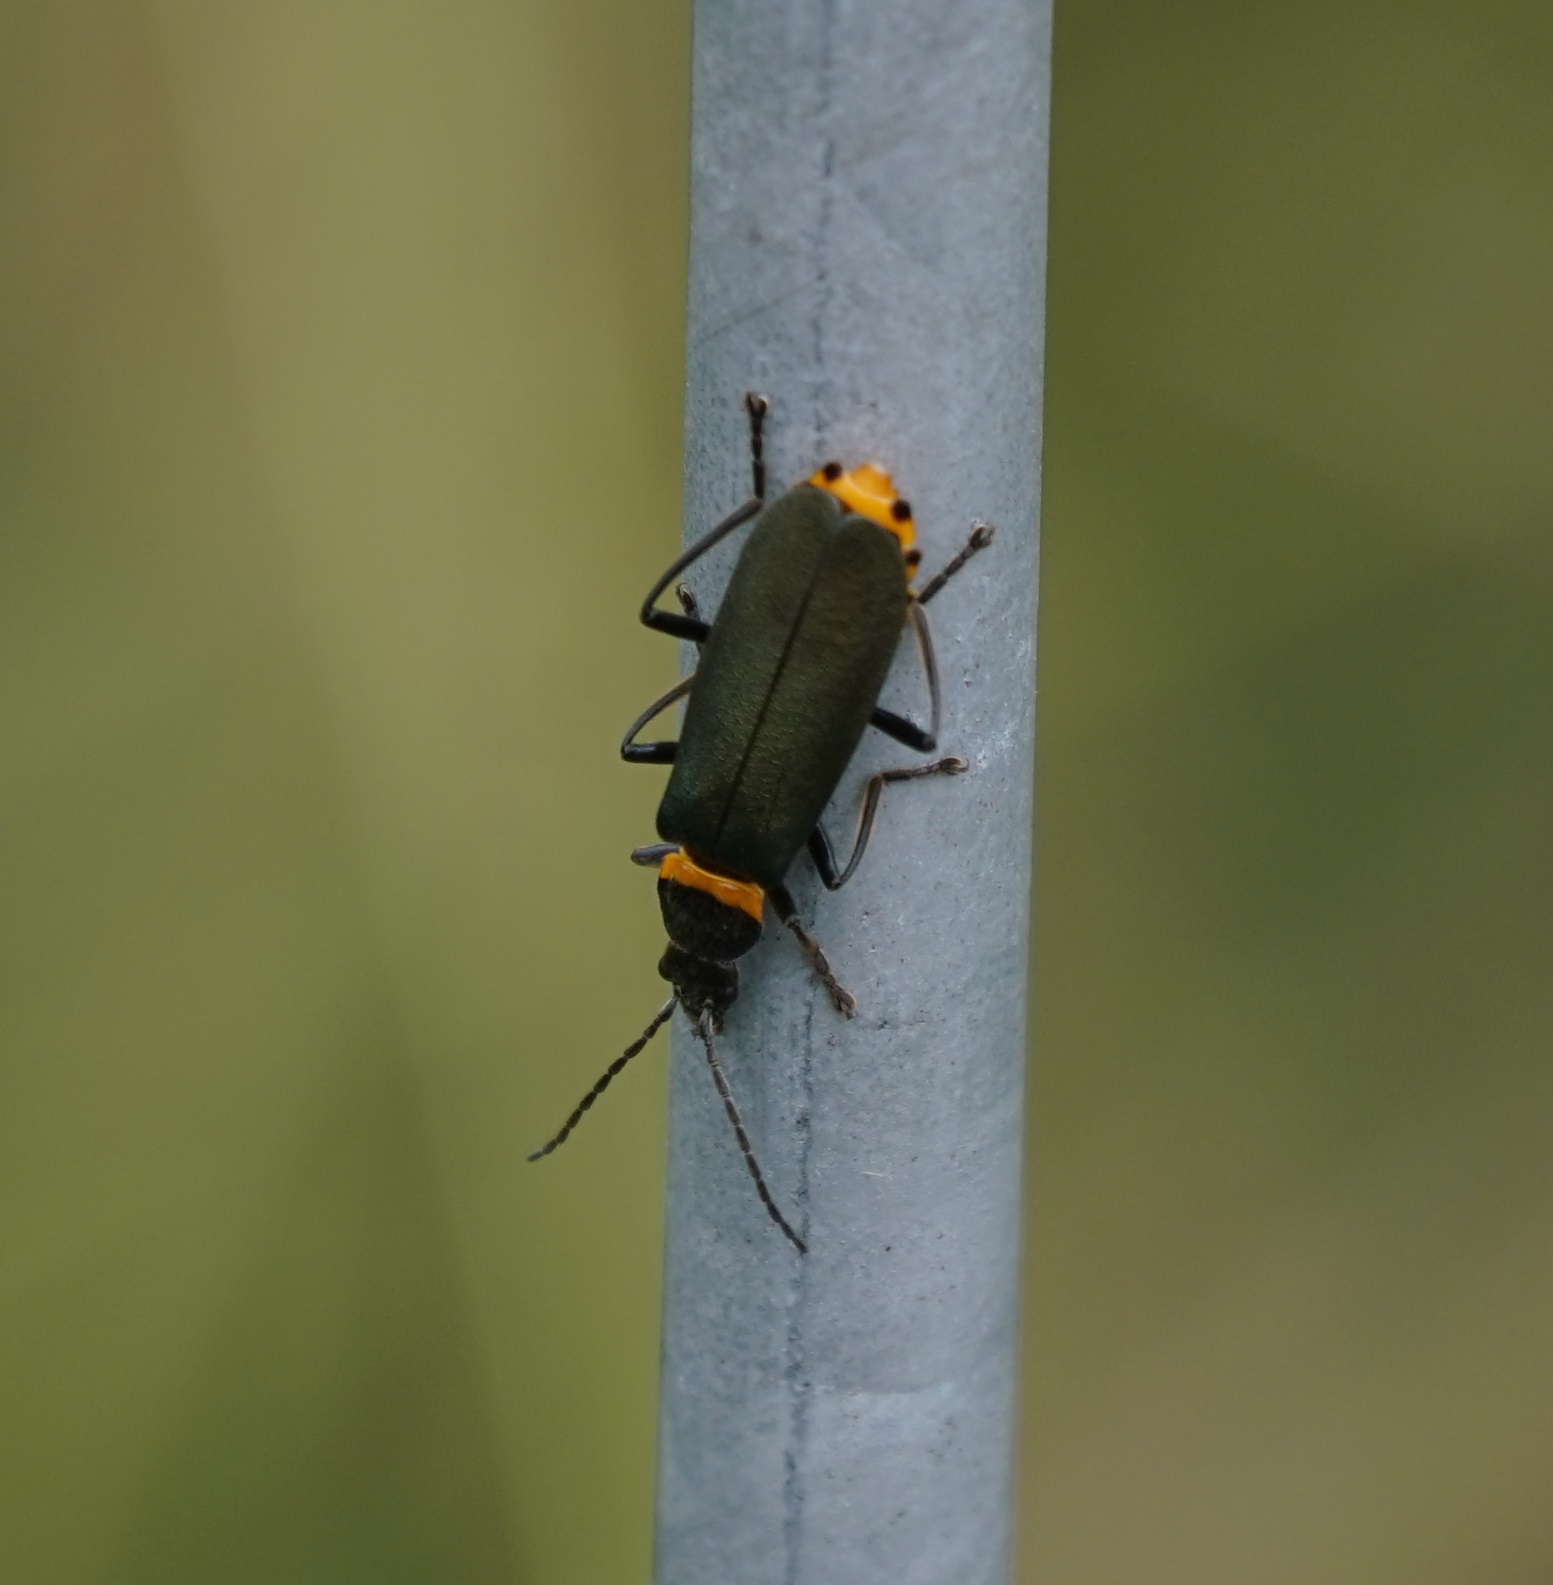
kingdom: Animalia
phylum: Arthropoda
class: Insecta
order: Coleoptera
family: Cantharidae
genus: Chauliognathus
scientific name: Chauliognathus
